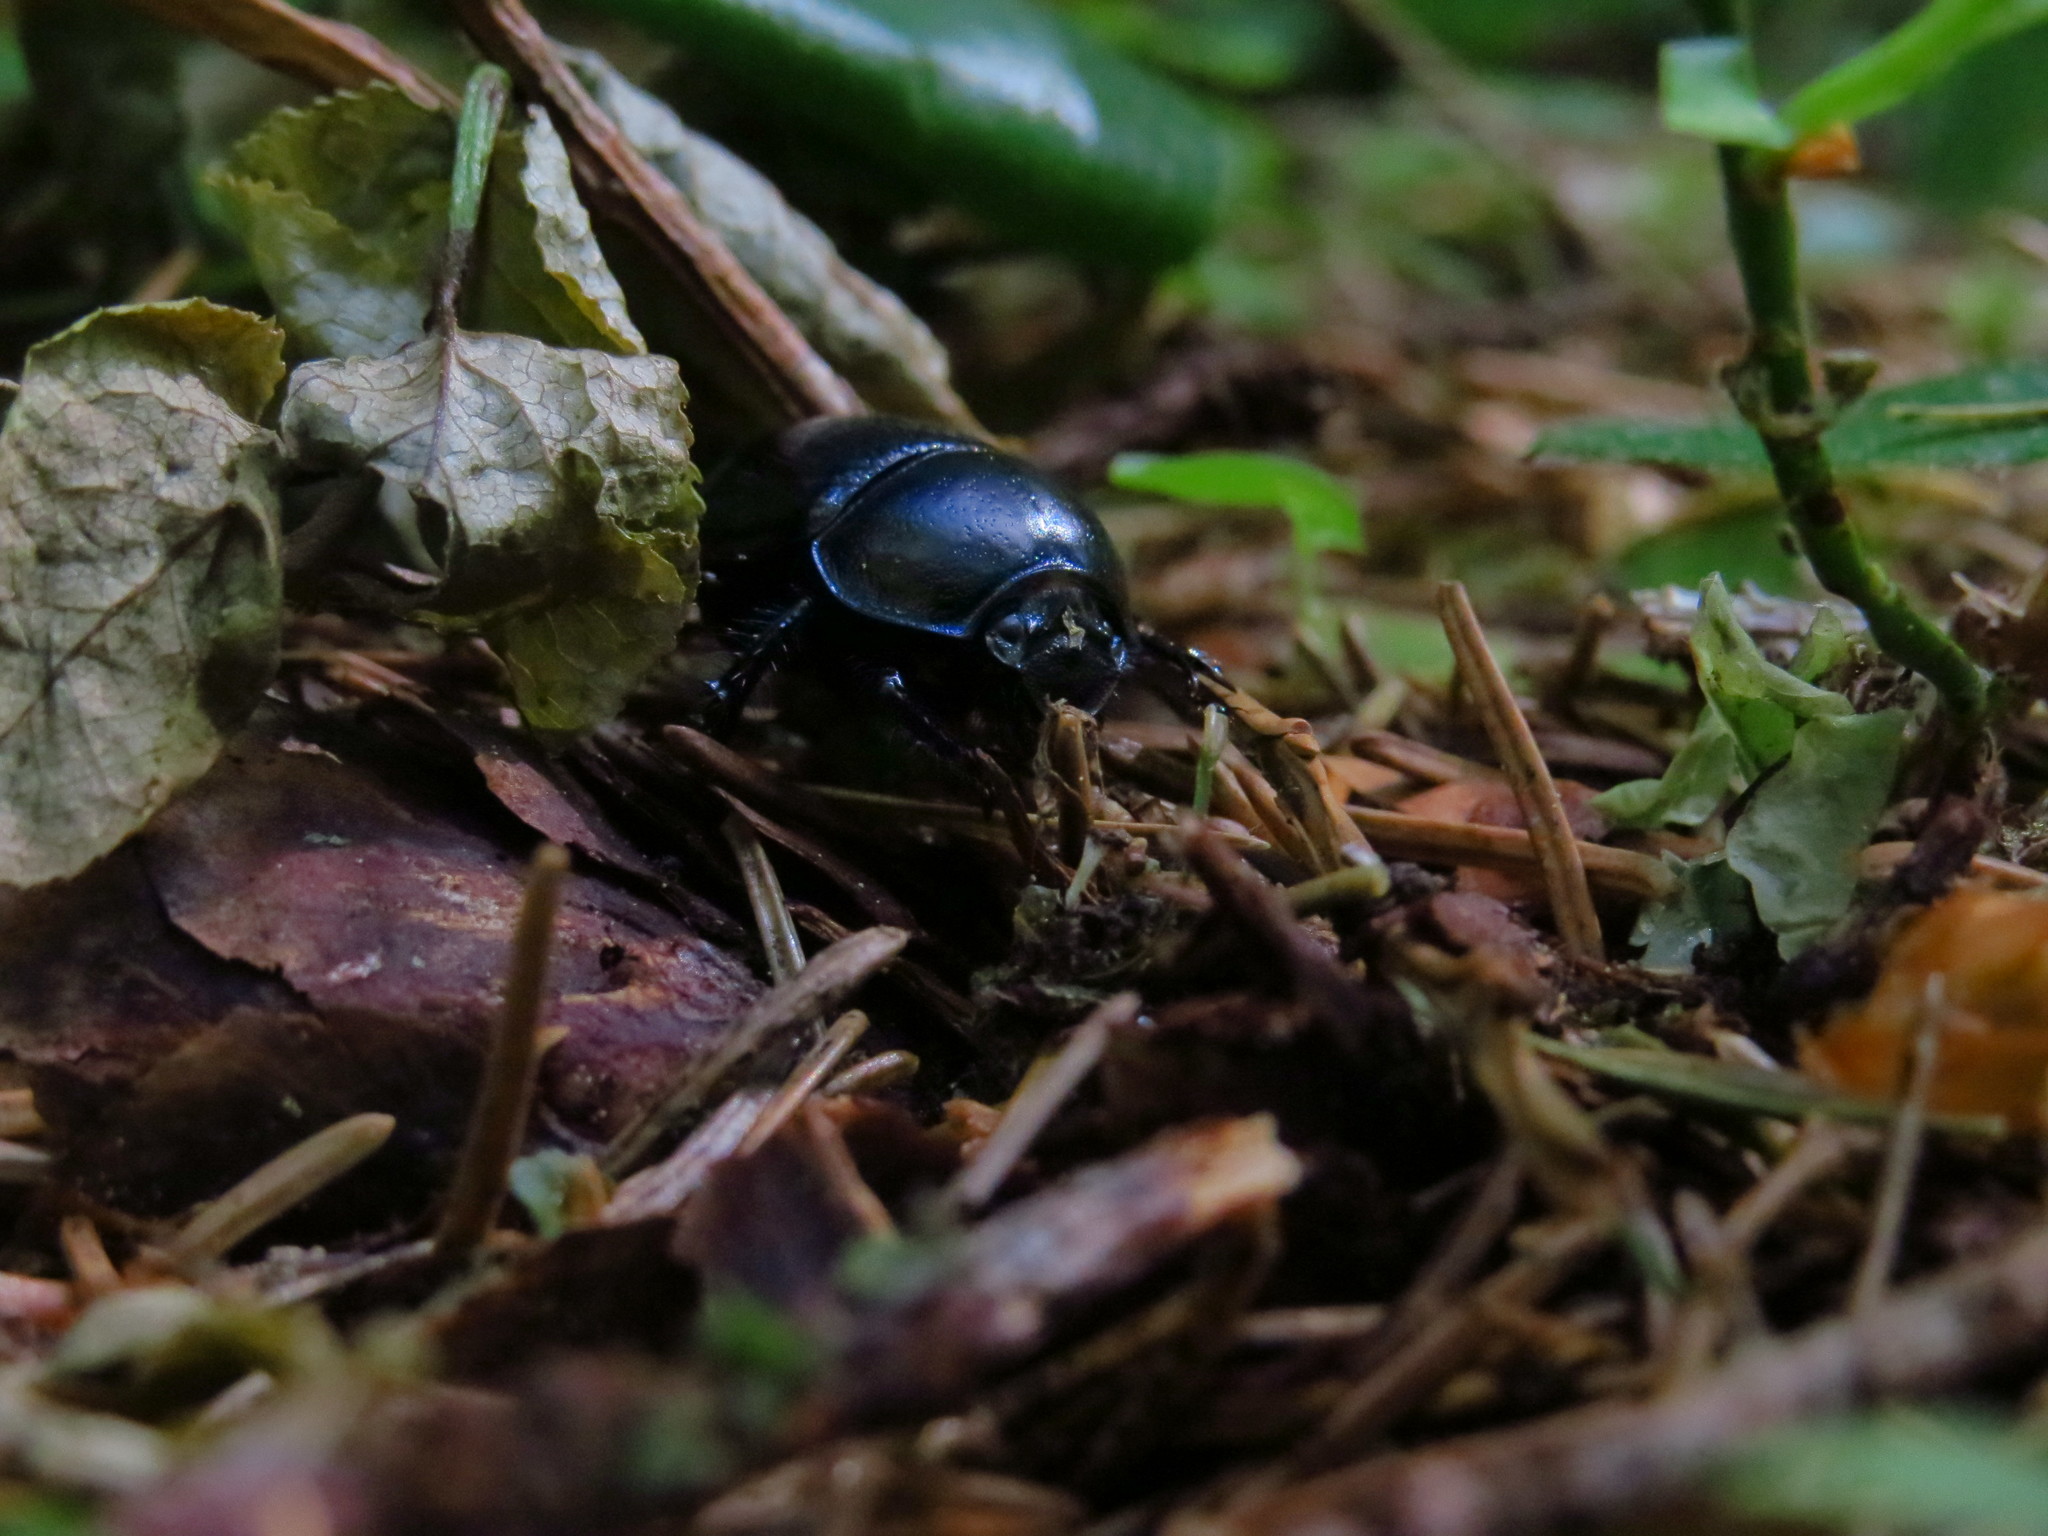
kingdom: Animalia
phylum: Arthropoda
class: Insecta
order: Coleoptera
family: Geotrupidae
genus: Anoplotrupes
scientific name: Anoplotrupes stercorosus
